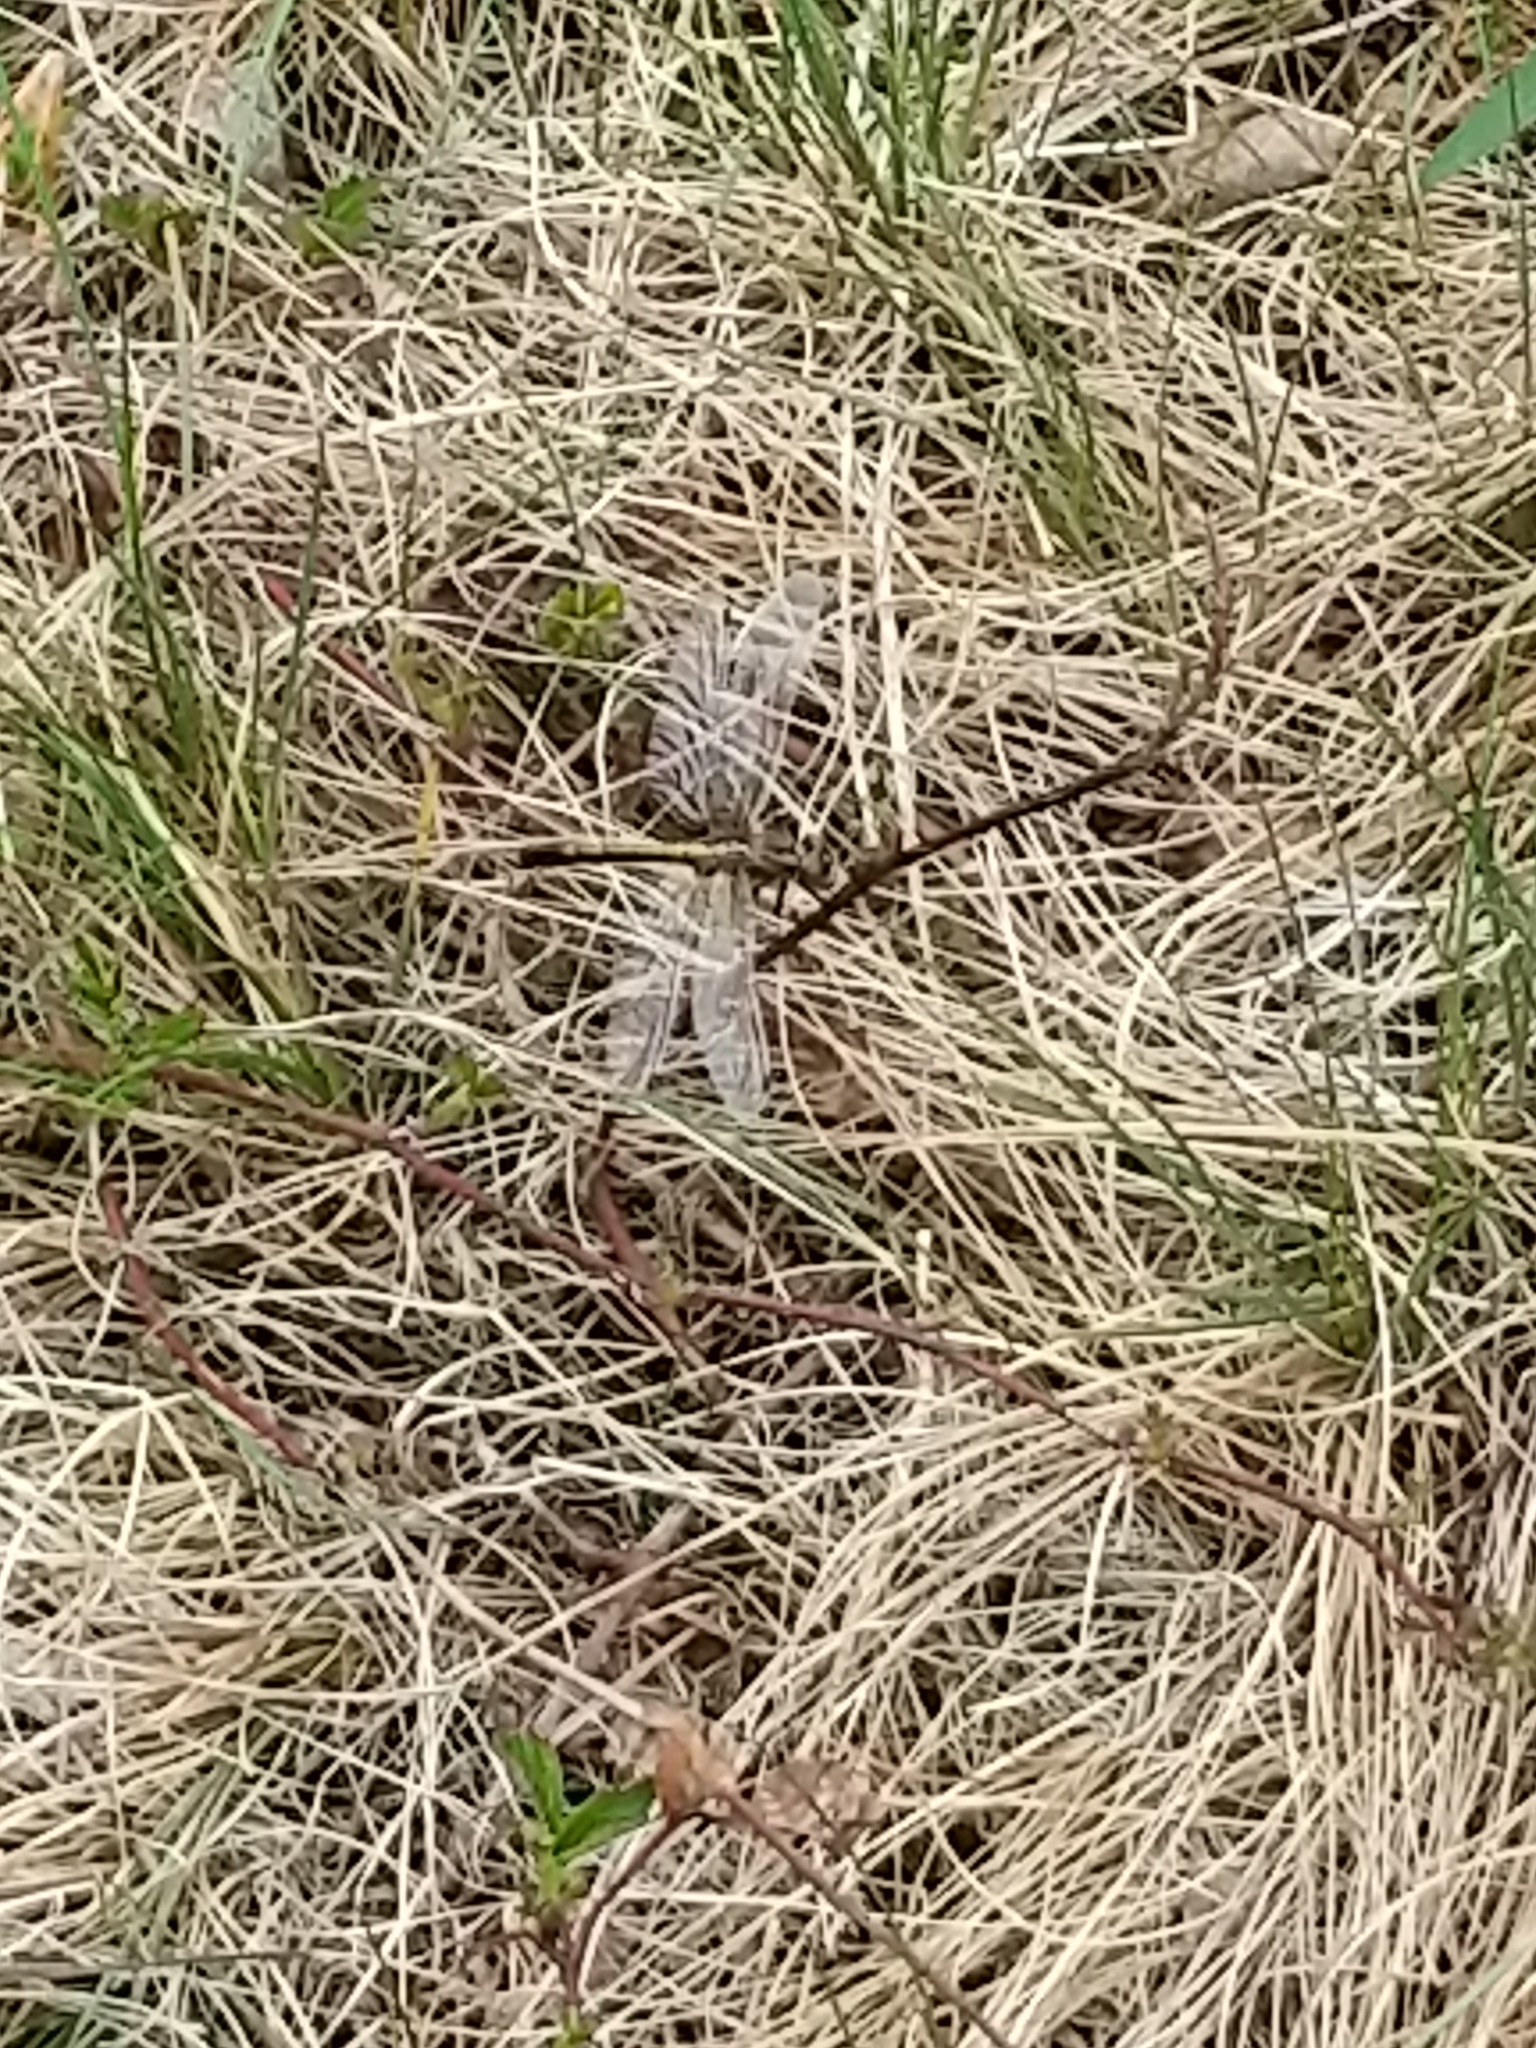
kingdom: Animalia
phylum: Arthropoda
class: Insecta
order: Odonata
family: Libellulidae
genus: Leucorrhinia
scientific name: Leucorrhinia intacta
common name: Dot-tailed whiteface
